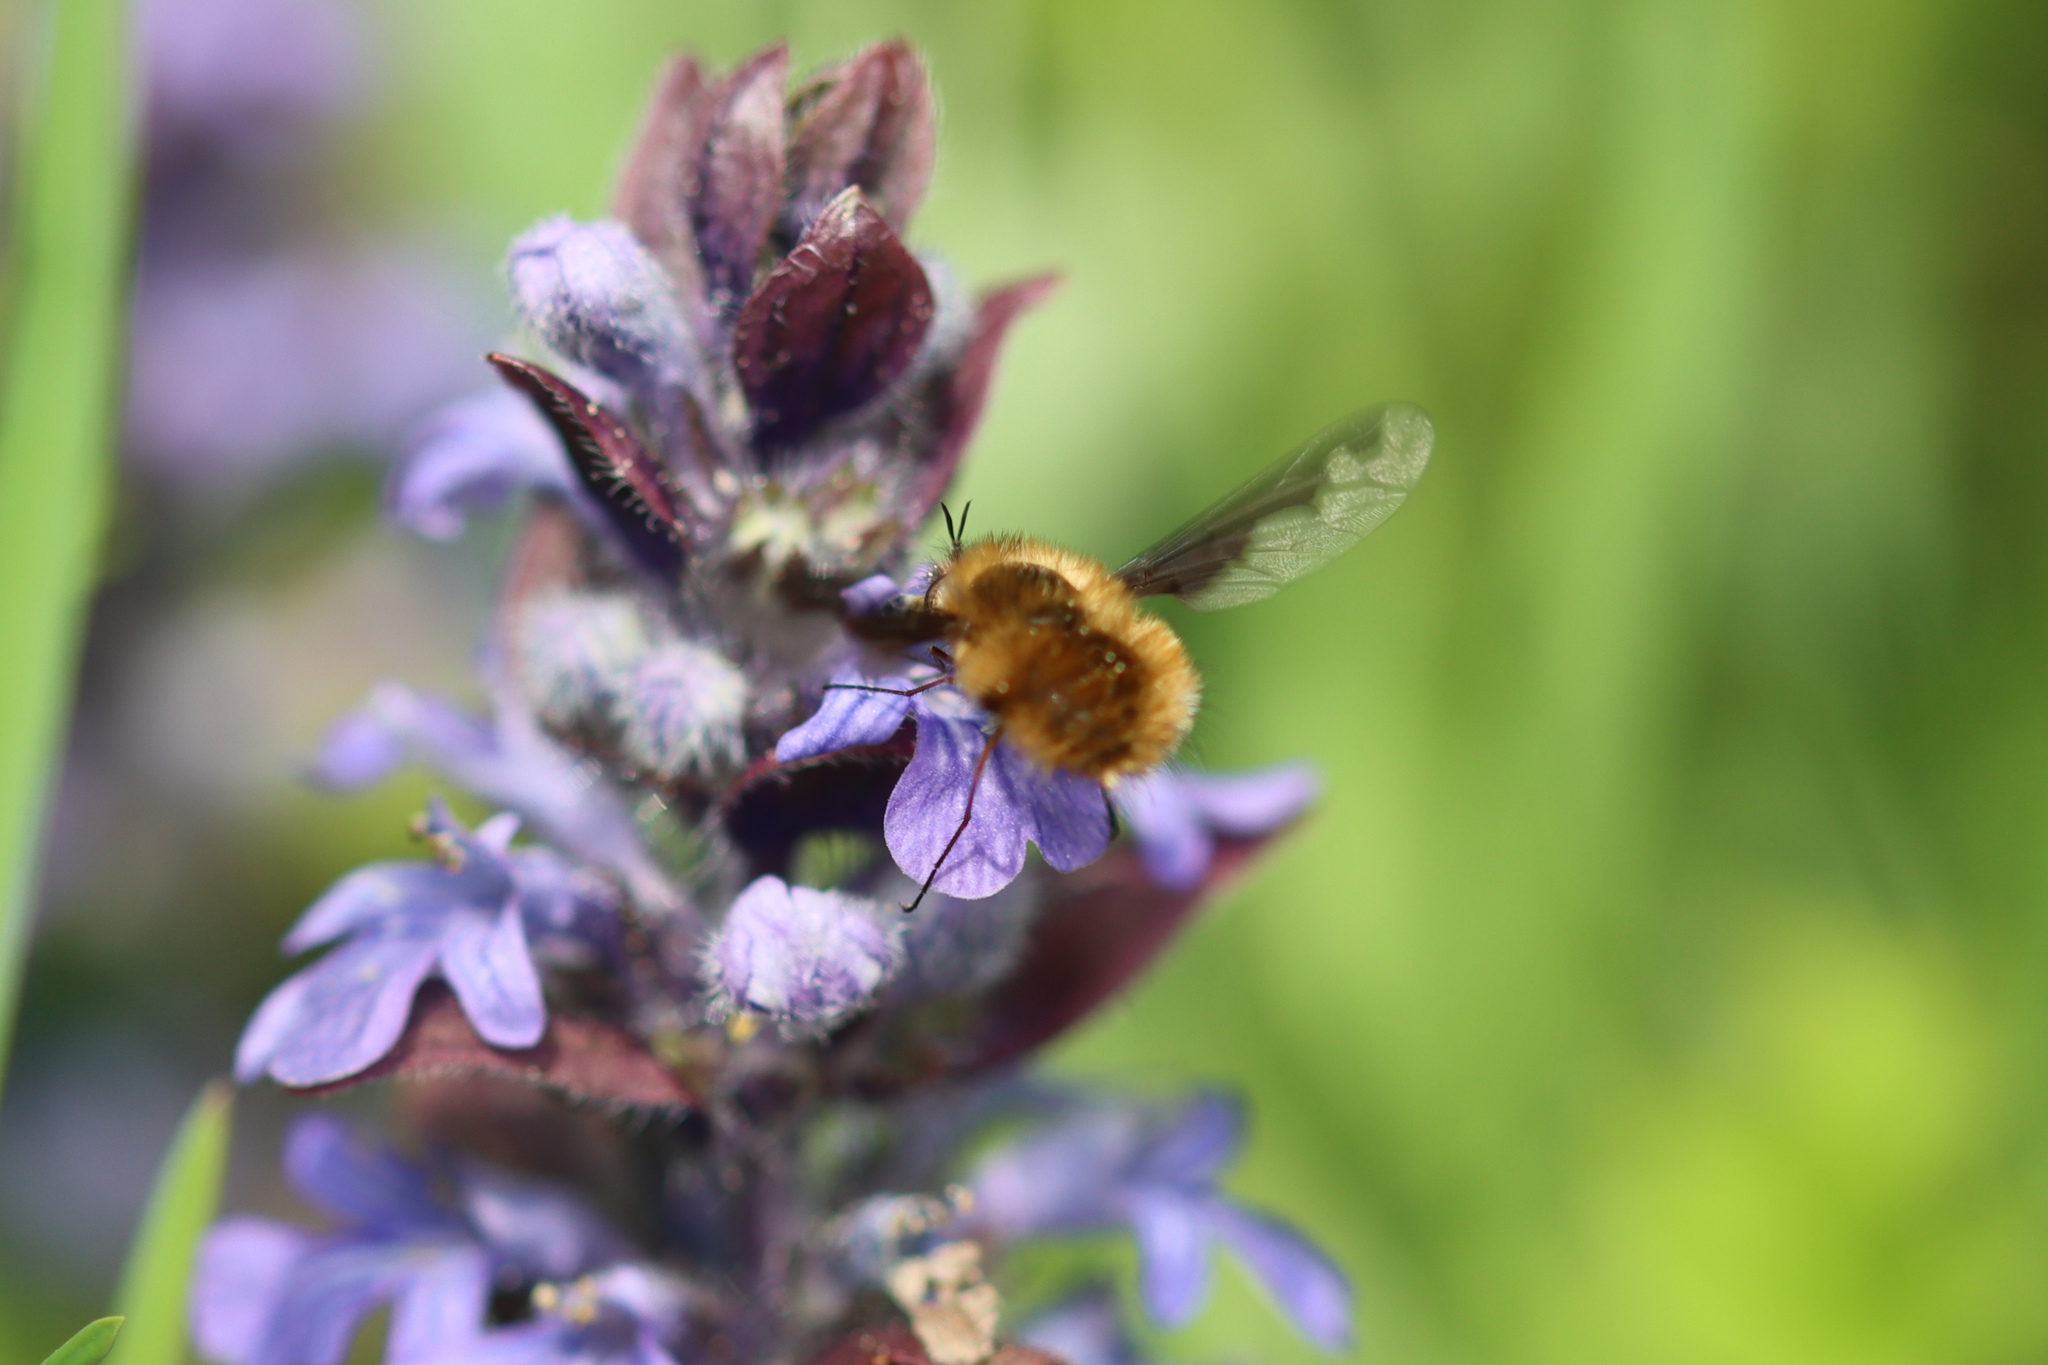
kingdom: Animalia
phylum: Arthropoda
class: Insecta
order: Diptera
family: Bombyliidae
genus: Bombylius
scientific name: Bombylius major
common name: Bee fly
